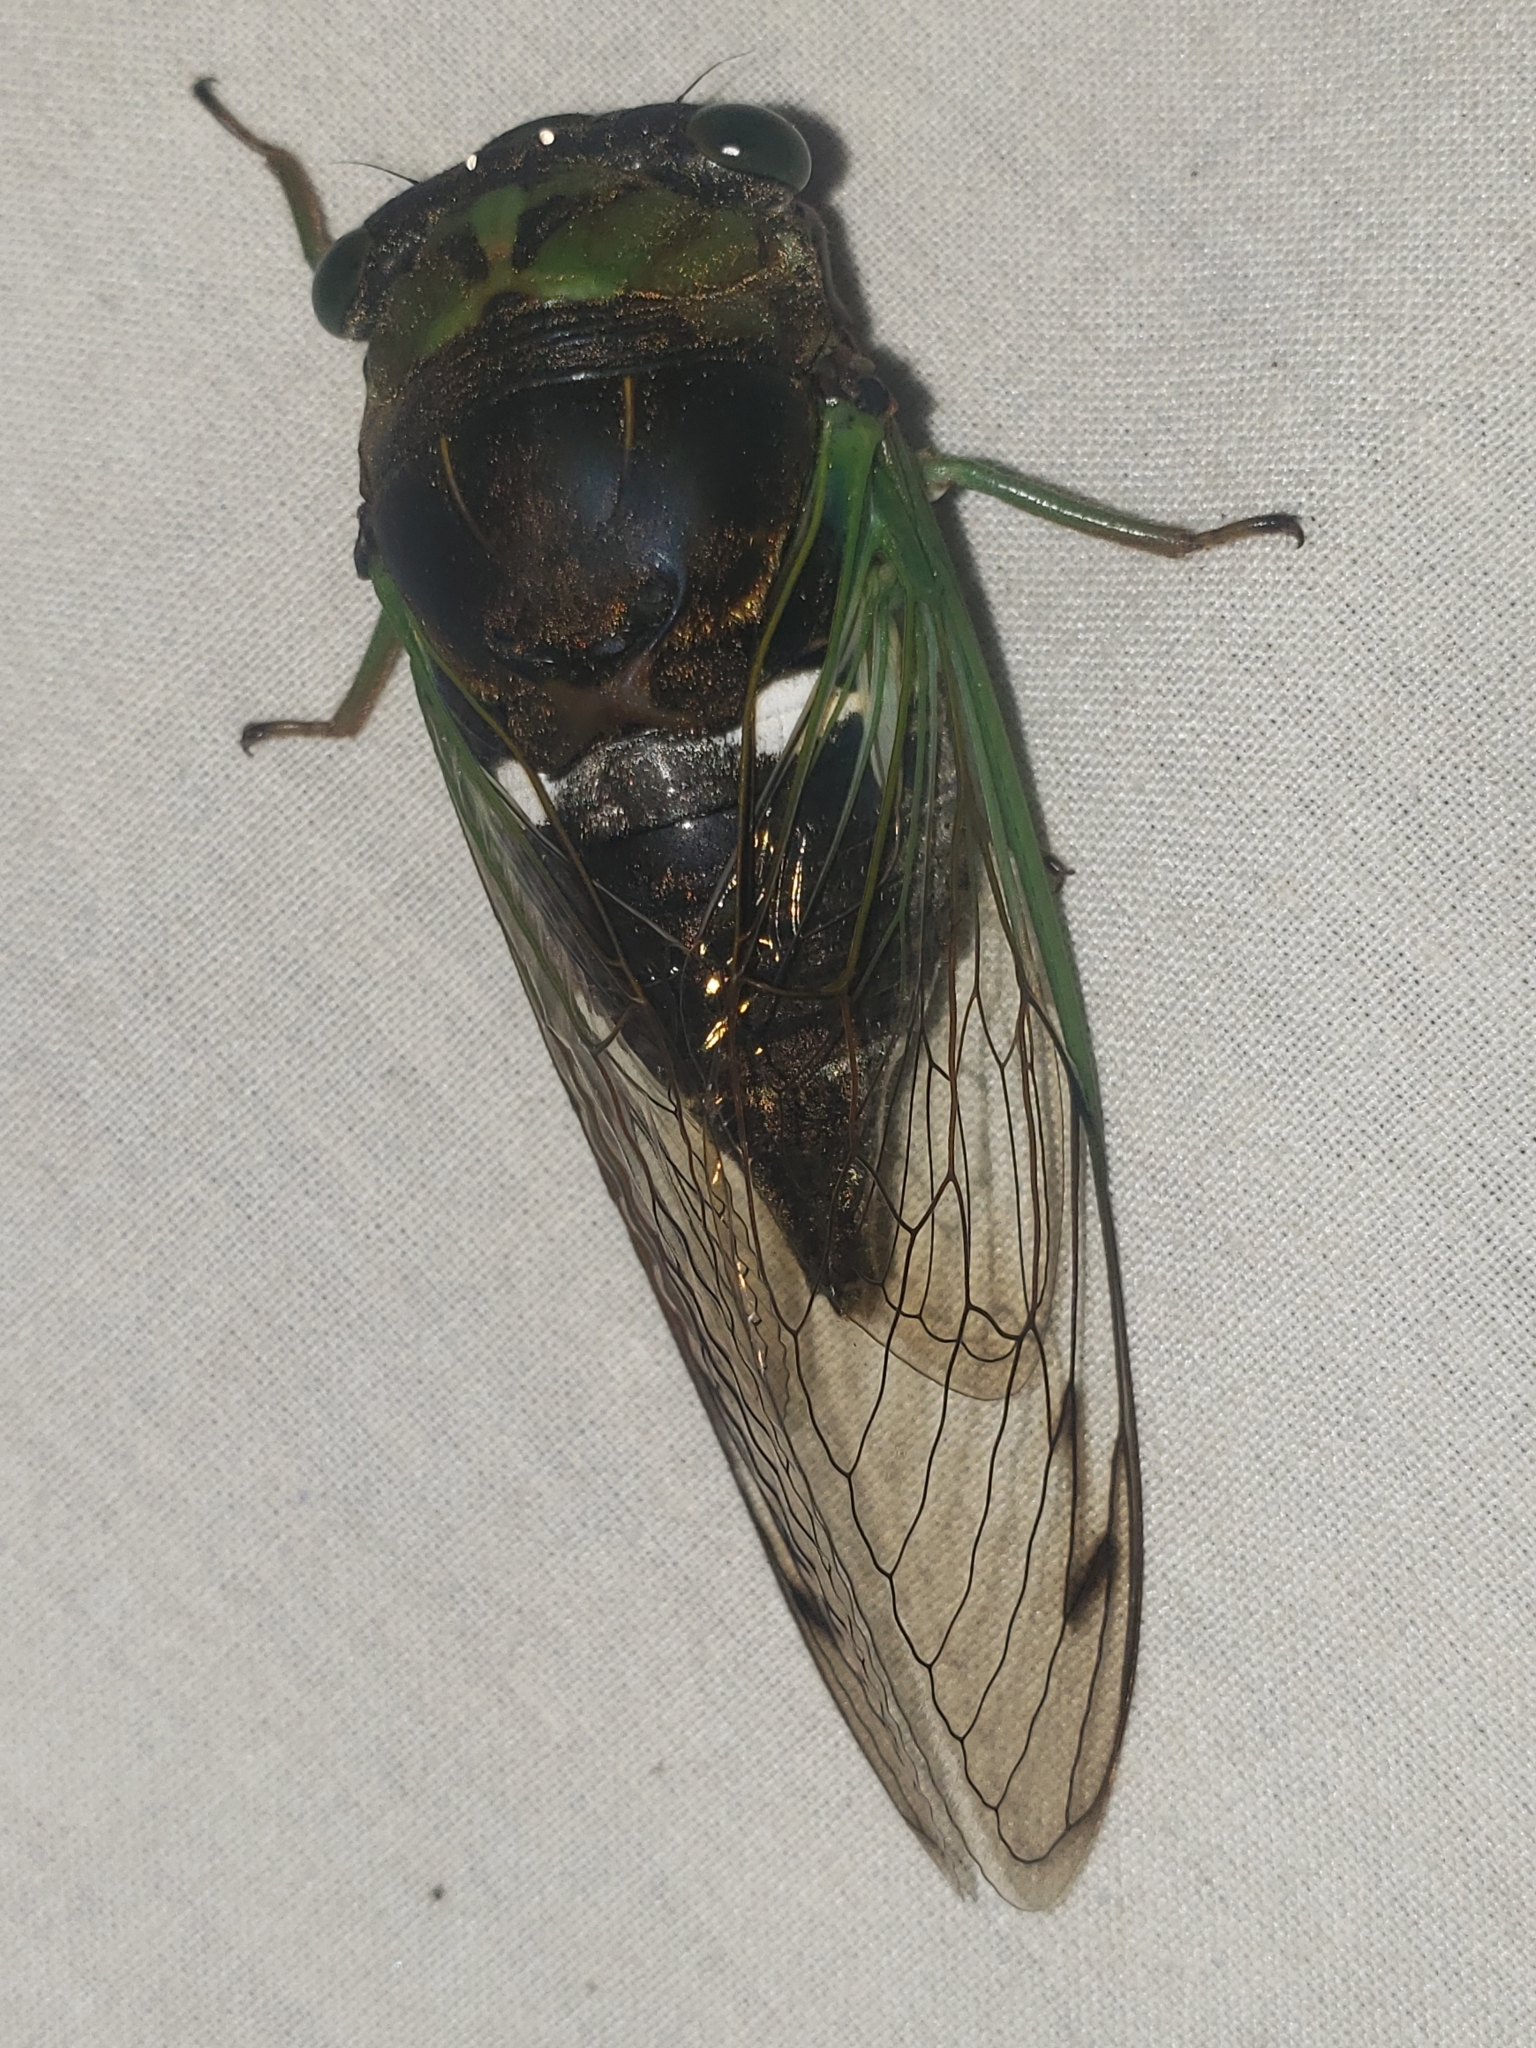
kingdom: Animalia
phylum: Arthropoda
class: Insecta
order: Hemiptera
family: Cicadidae
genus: Neotibicen
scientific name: Neotibicen tibicen
